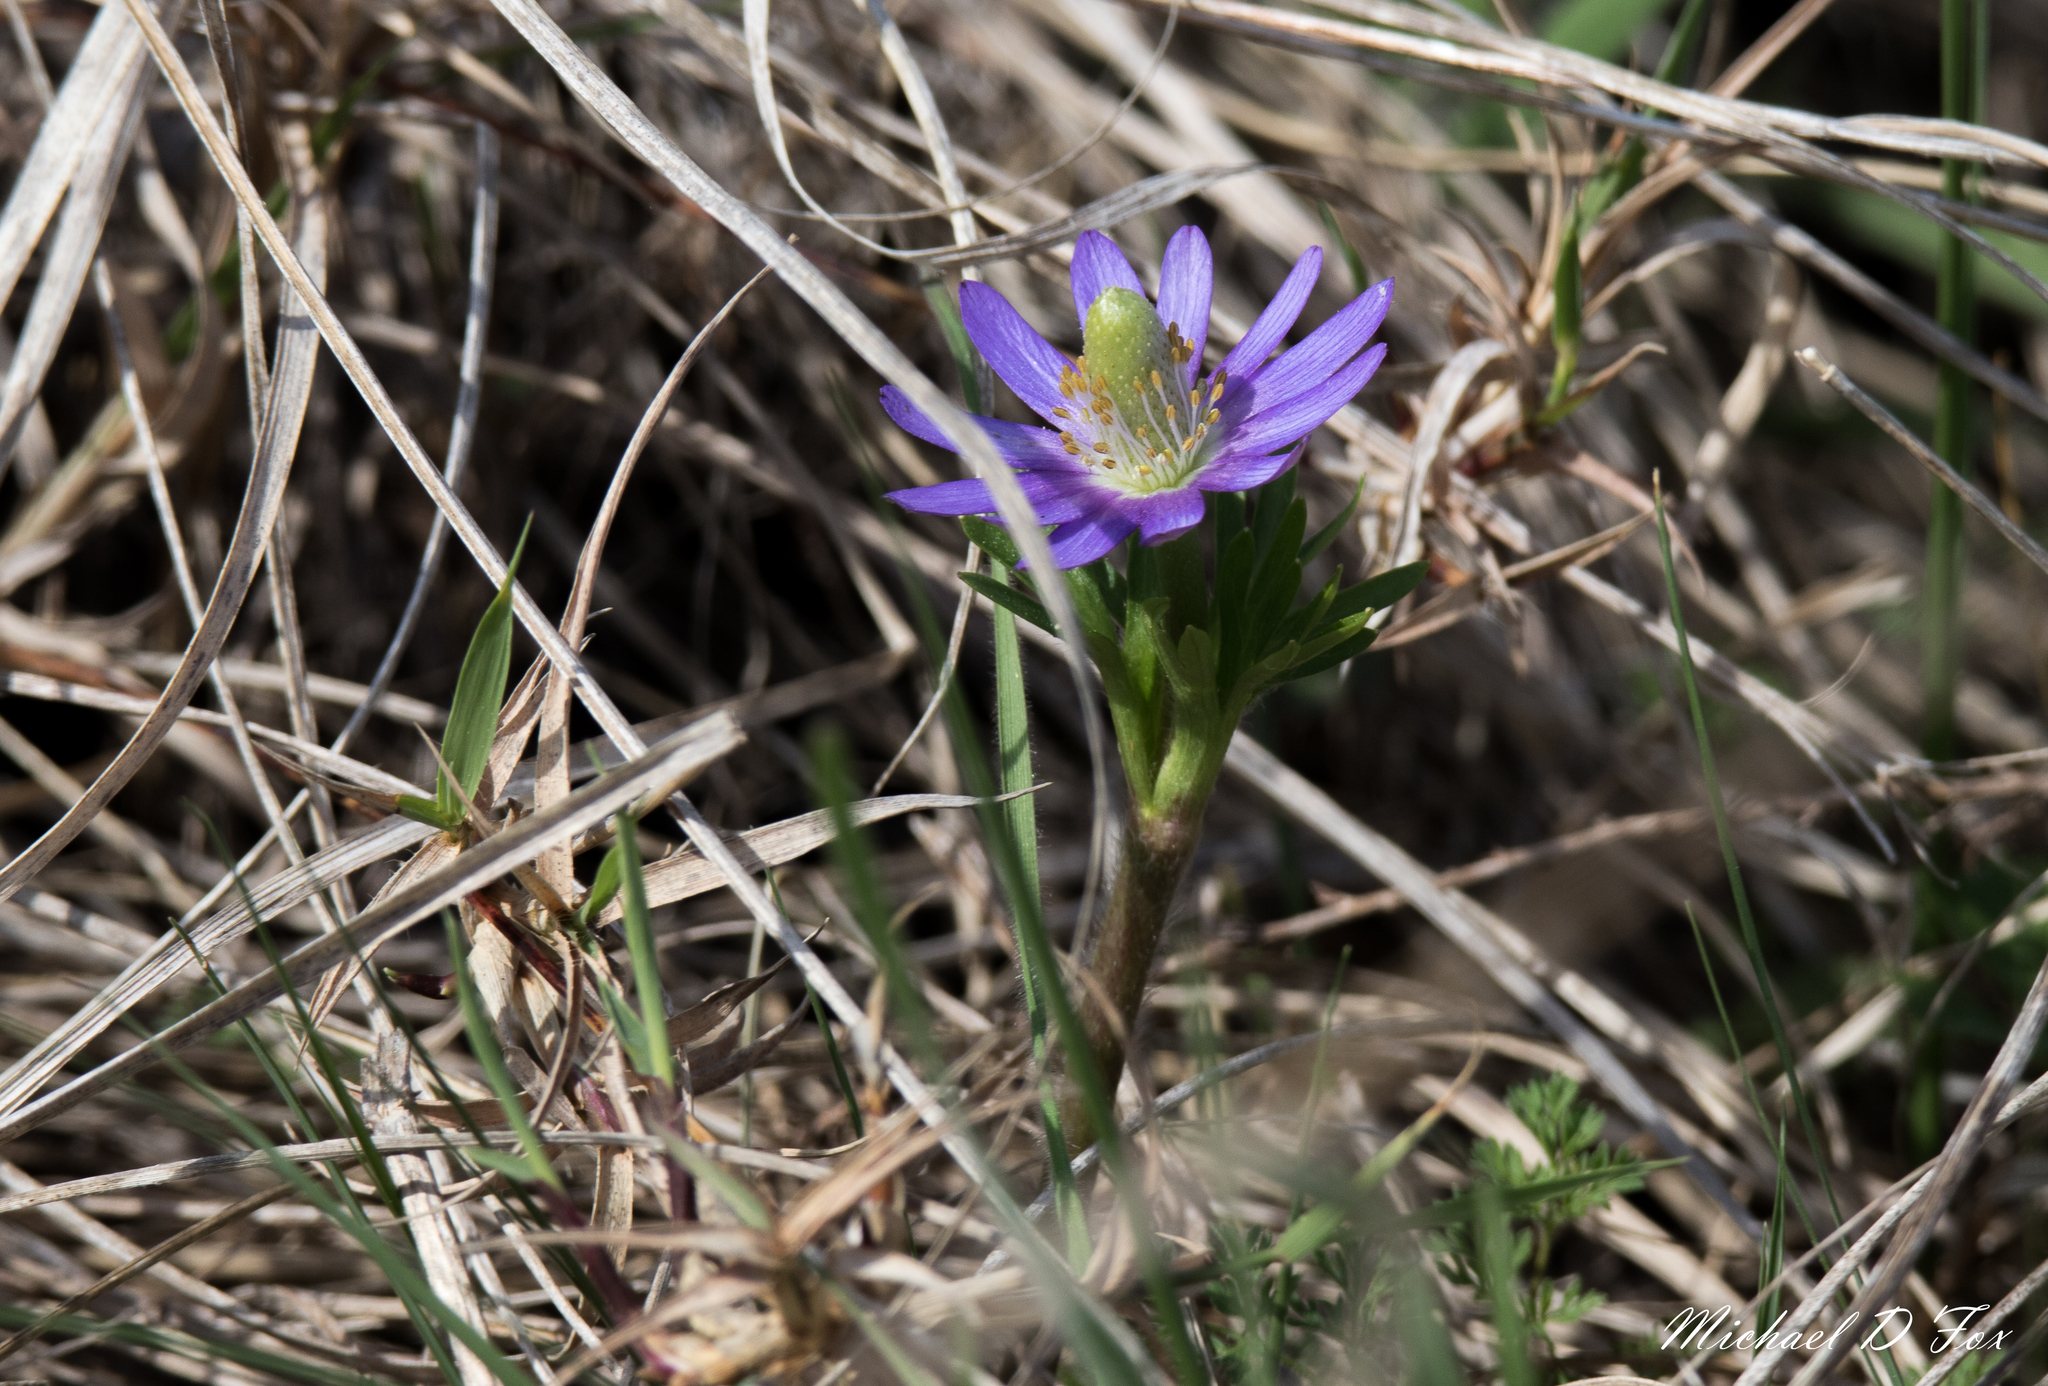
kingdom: Plantae
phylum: Tracheophyta
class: Magnoliopsida
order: Ranunculales
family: Ranunculaceae
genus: Anemone
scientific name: Anemone berlandieri
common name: Ten-petal anemone
